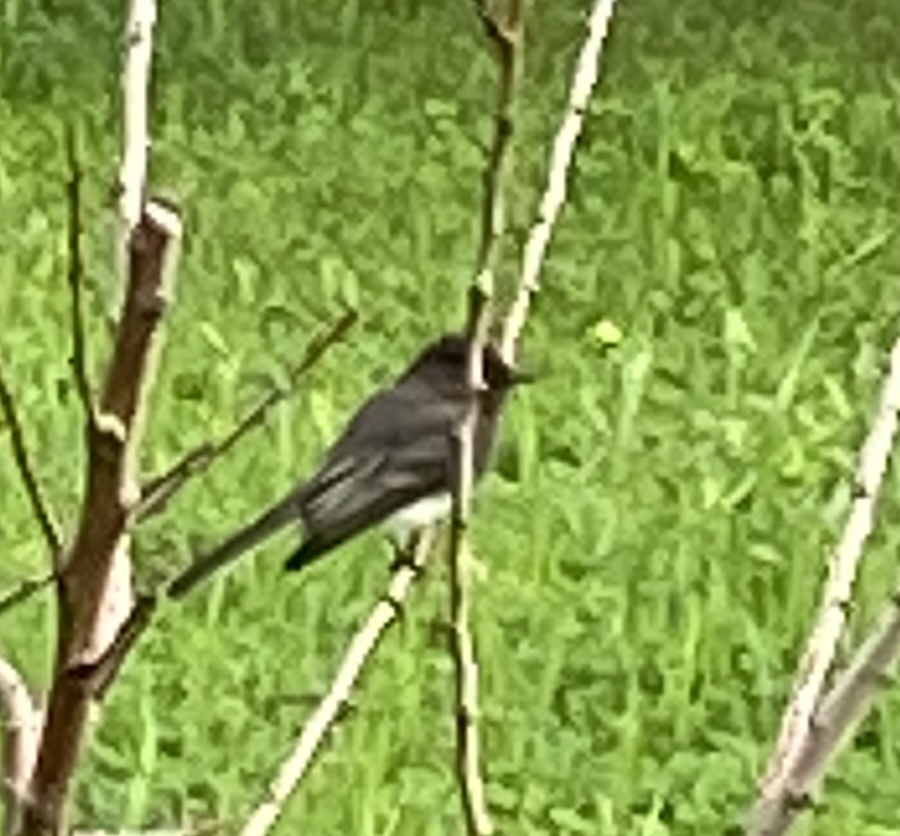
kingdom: Animalia
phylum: Chordata
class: Aves
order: Passeriformes
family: Tyrannidae
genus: Sayornis
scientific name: Sayornis nigricans
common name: Black phoebe
